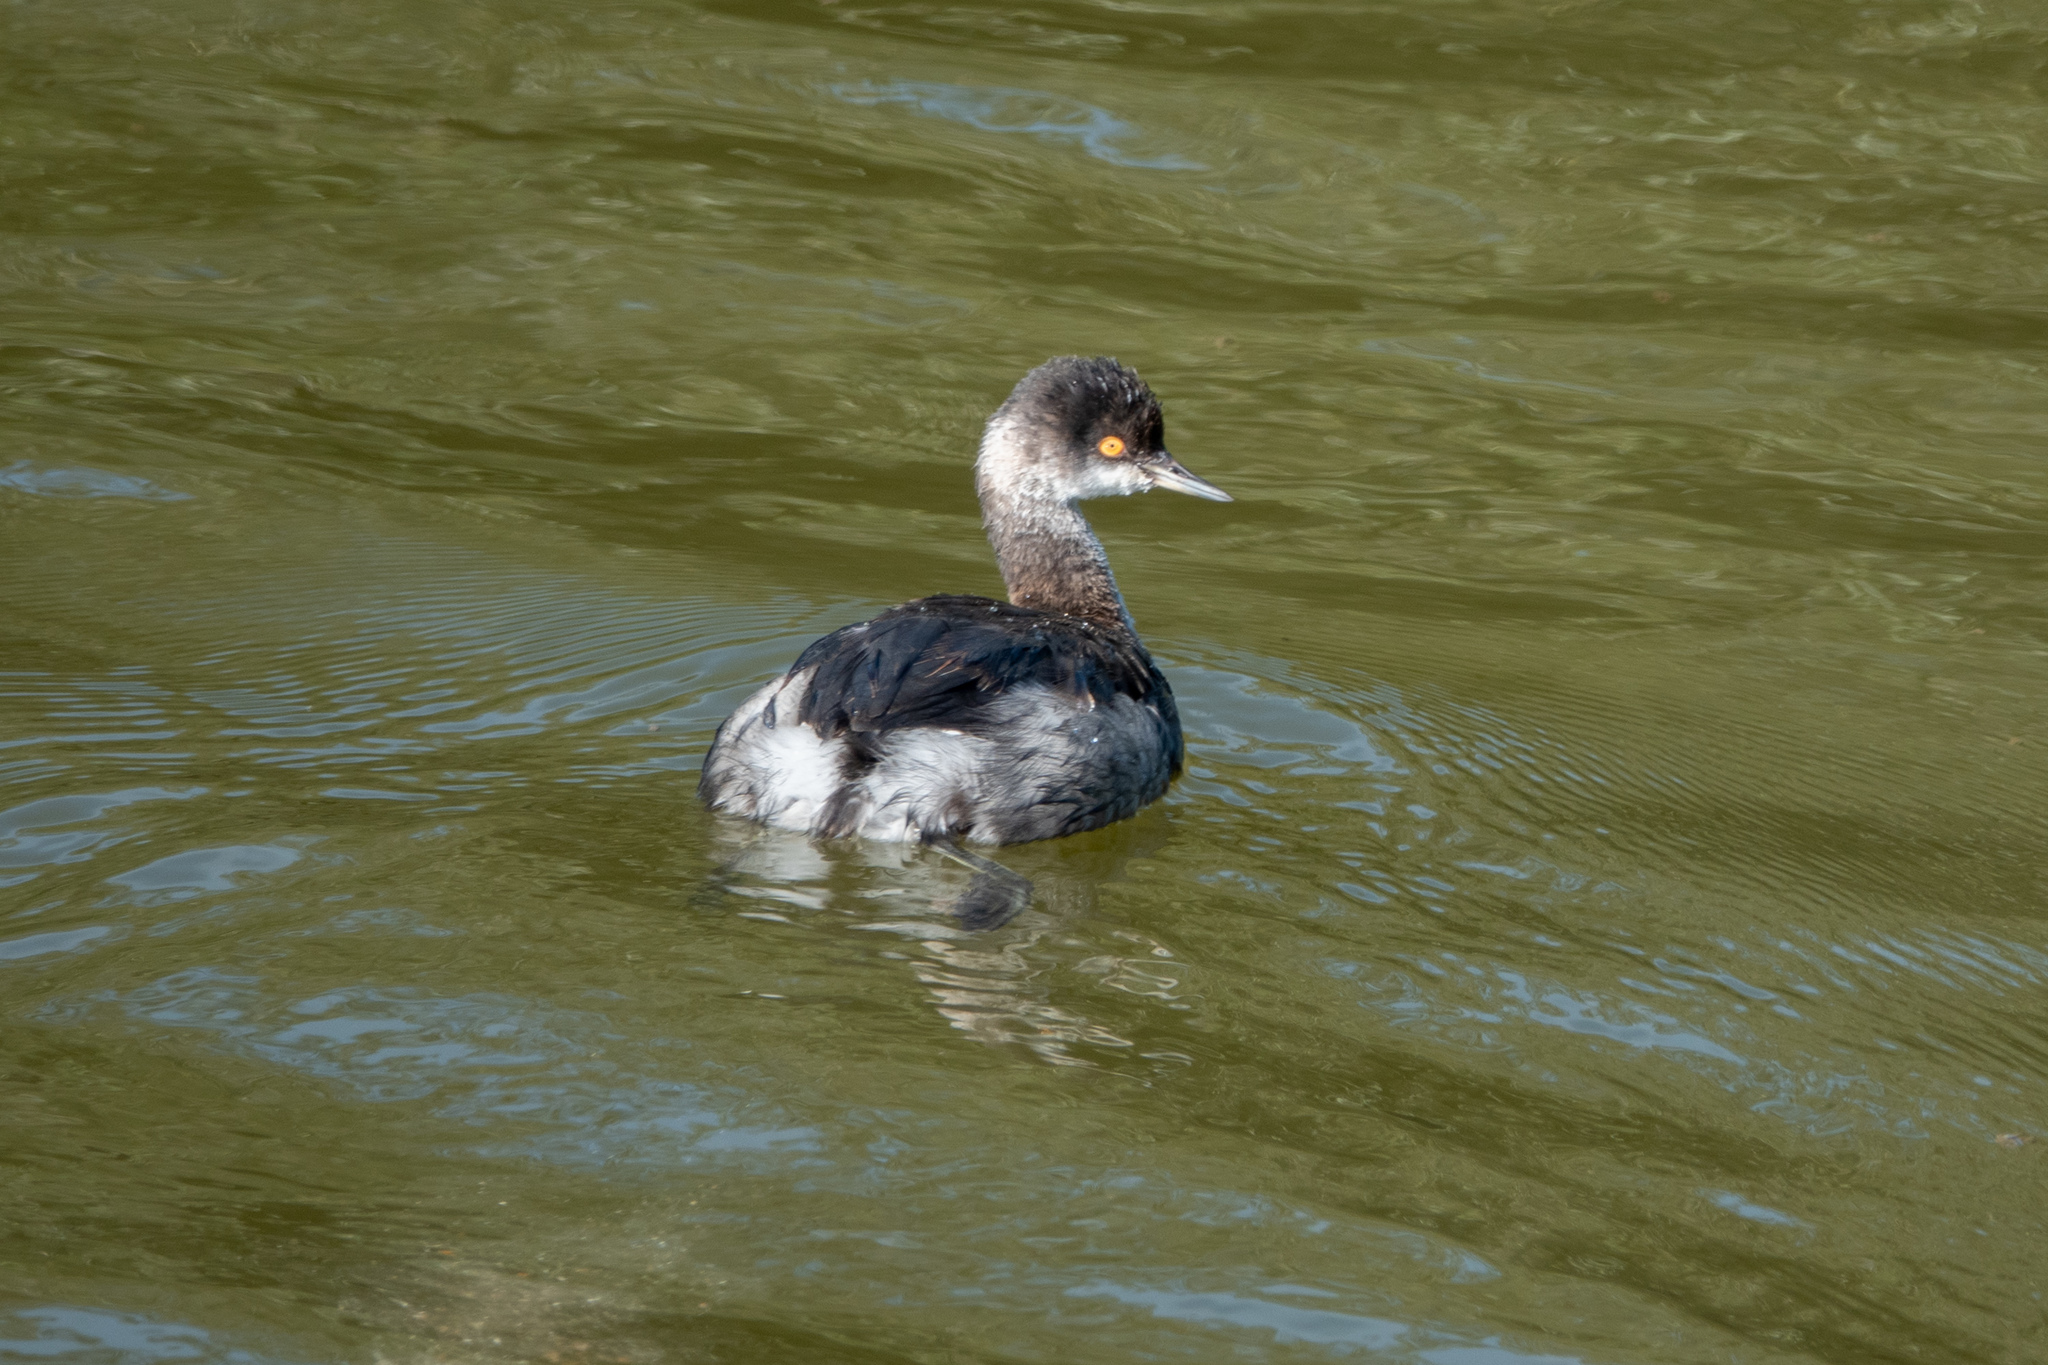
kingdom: Animalia
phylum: Chordata
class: Aves
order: Podicipediformes
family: Podicipedidae
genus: Podiceps
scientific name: Podiceps nigricollis
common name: Black-necked grebe
